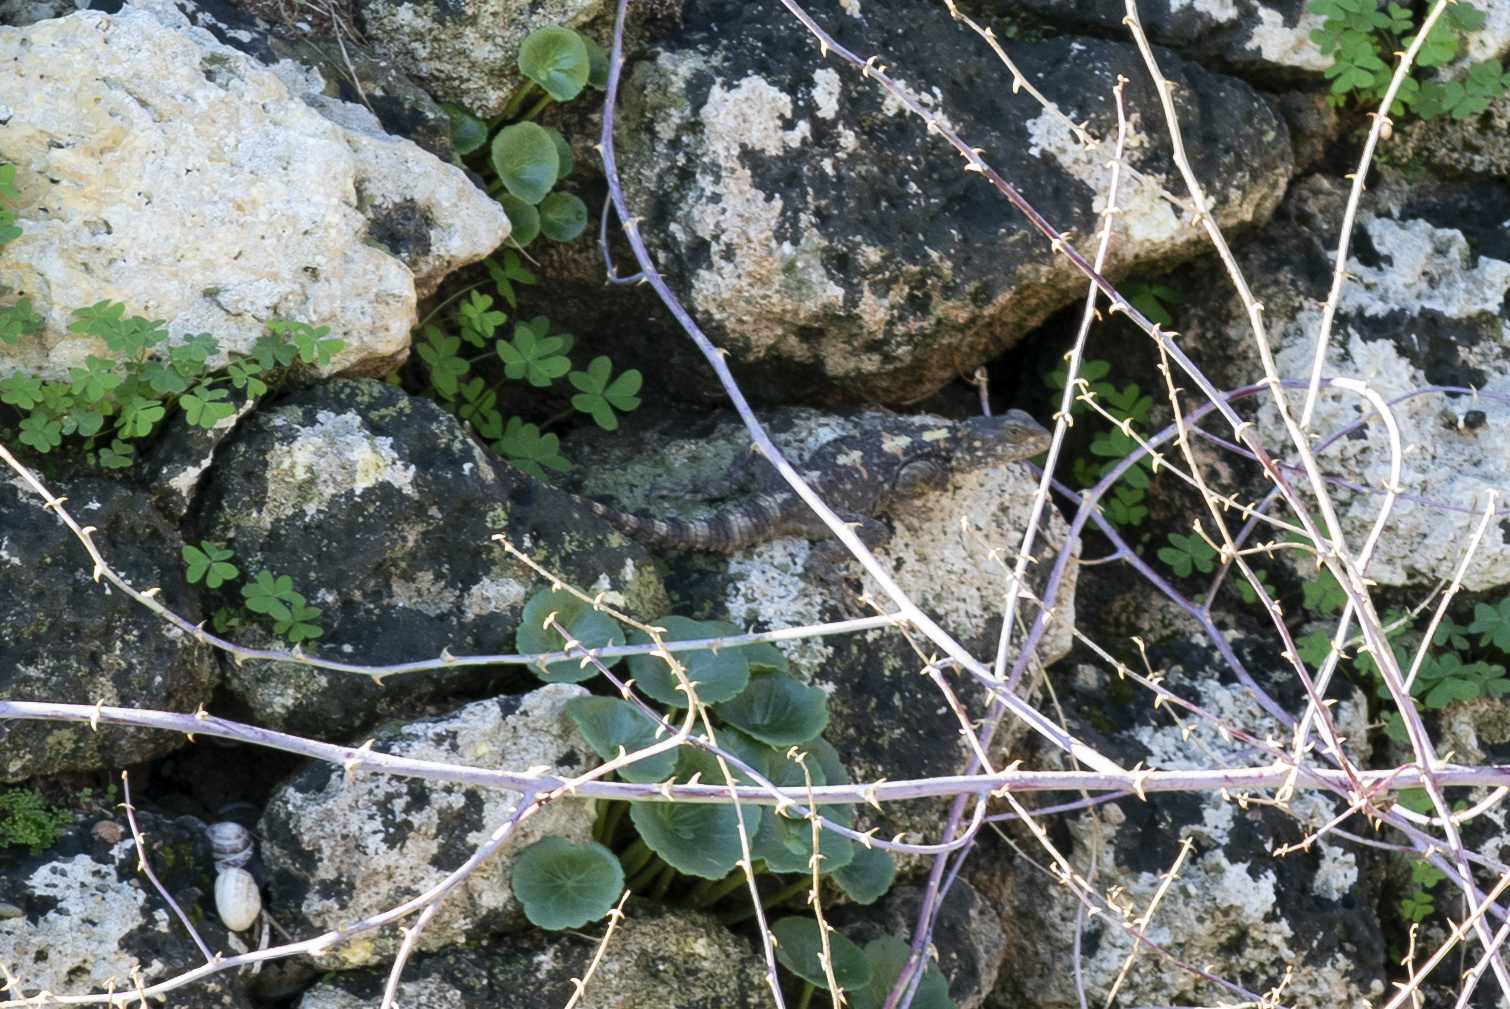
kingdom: Animalia
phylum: Chordata
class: Squamata
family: Agamidae
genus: Stellagama
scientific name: Stellagama stellio
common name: Starred agama
